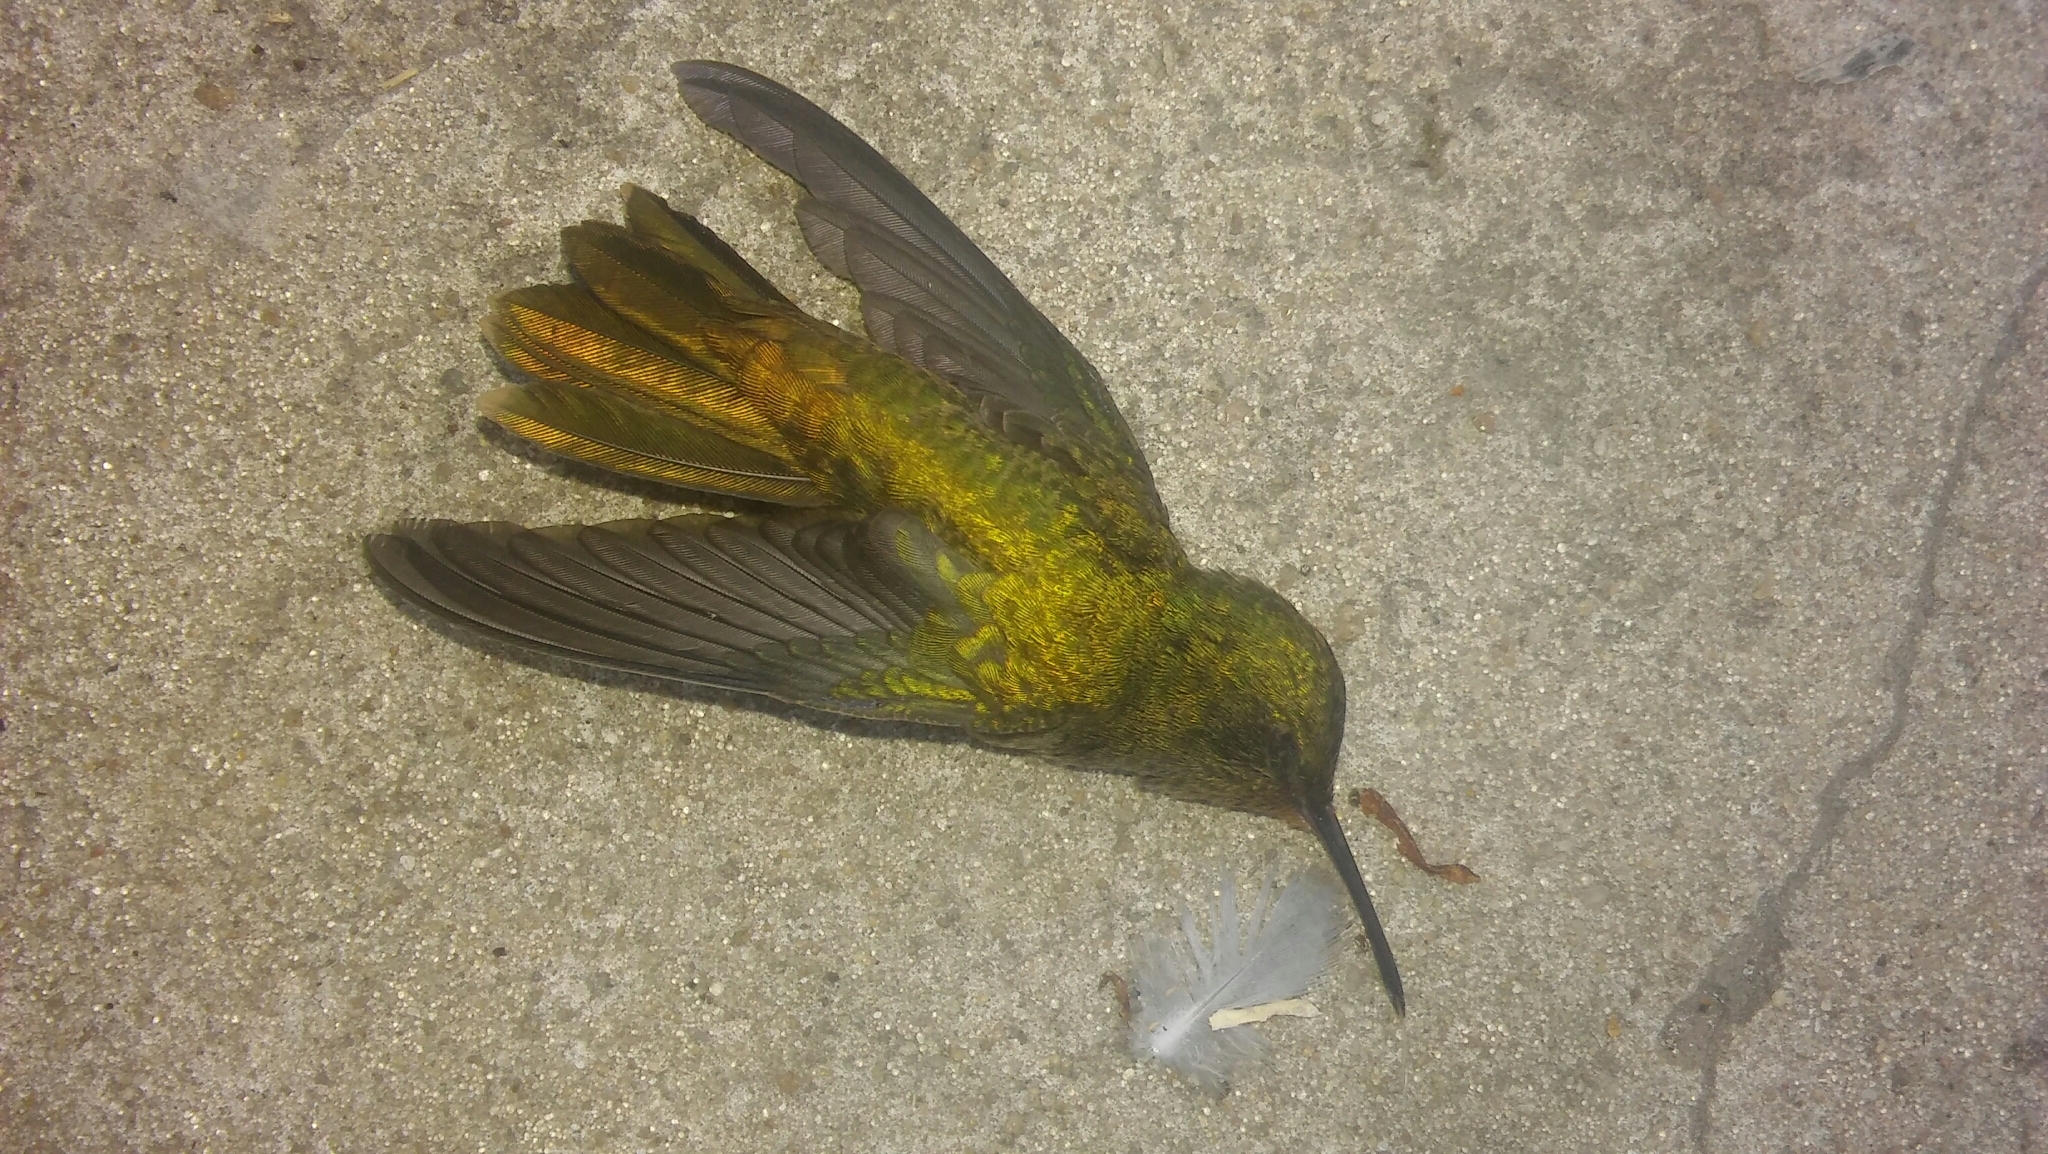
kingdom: Animalia
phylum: Chordata
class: Aves
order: Apodiformes
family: Trochilidae
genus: Hylocharis
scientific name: Hylocharis chrysura
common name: Gilded sapphire
